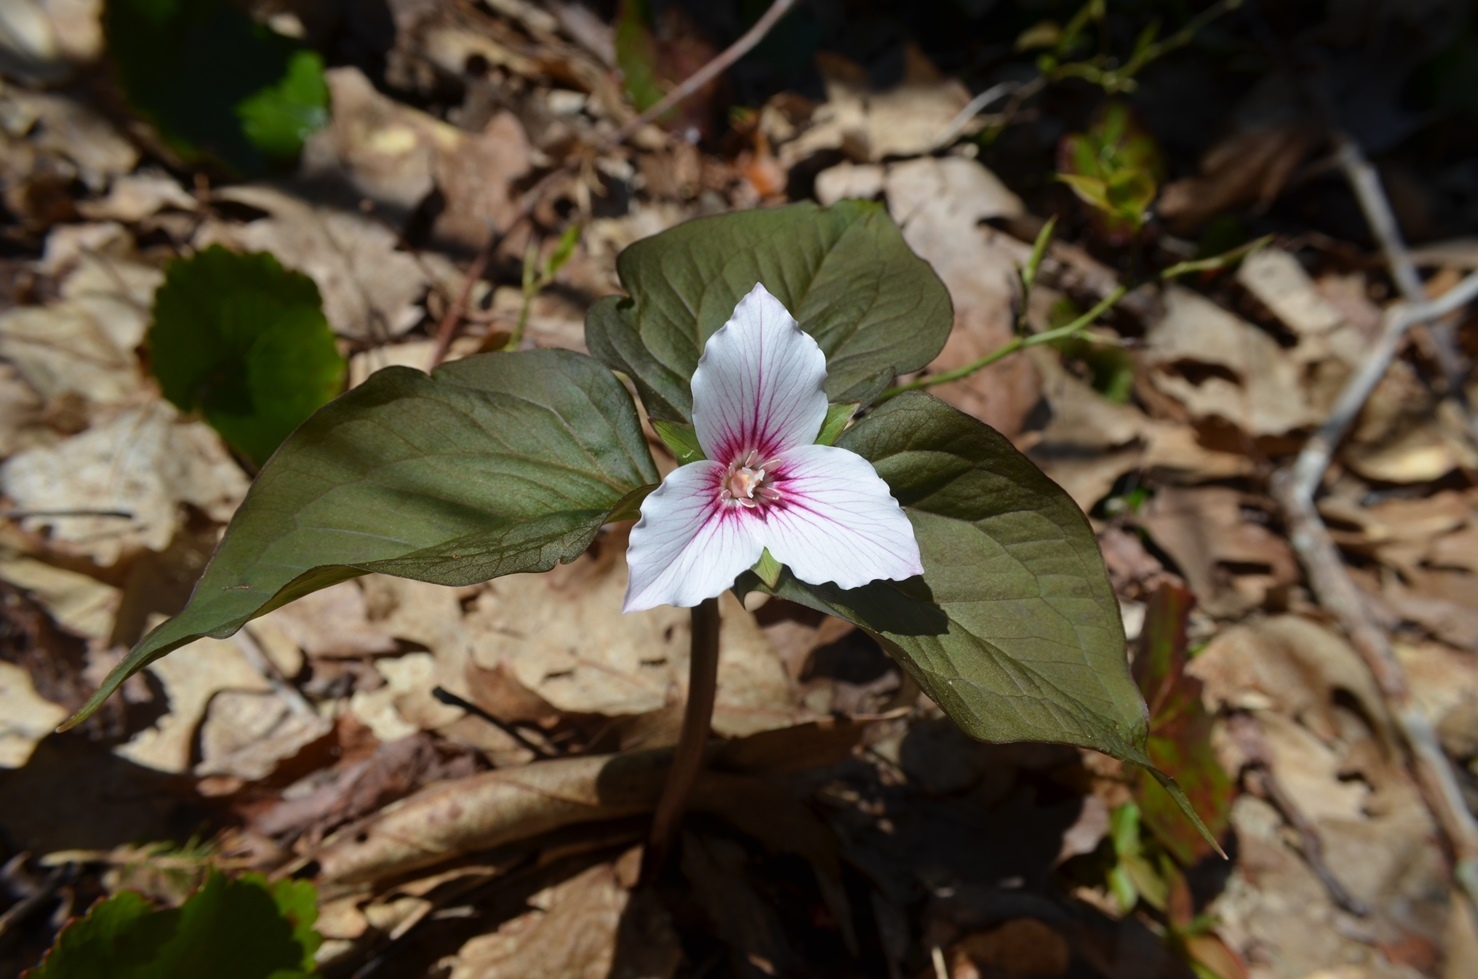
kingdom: Plantae
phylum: Tracheophyta
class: Liliopsida
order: Liliales
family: Melanthiaceae
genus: Trillium
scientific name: Trillium undulatum
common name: Paint trillium
